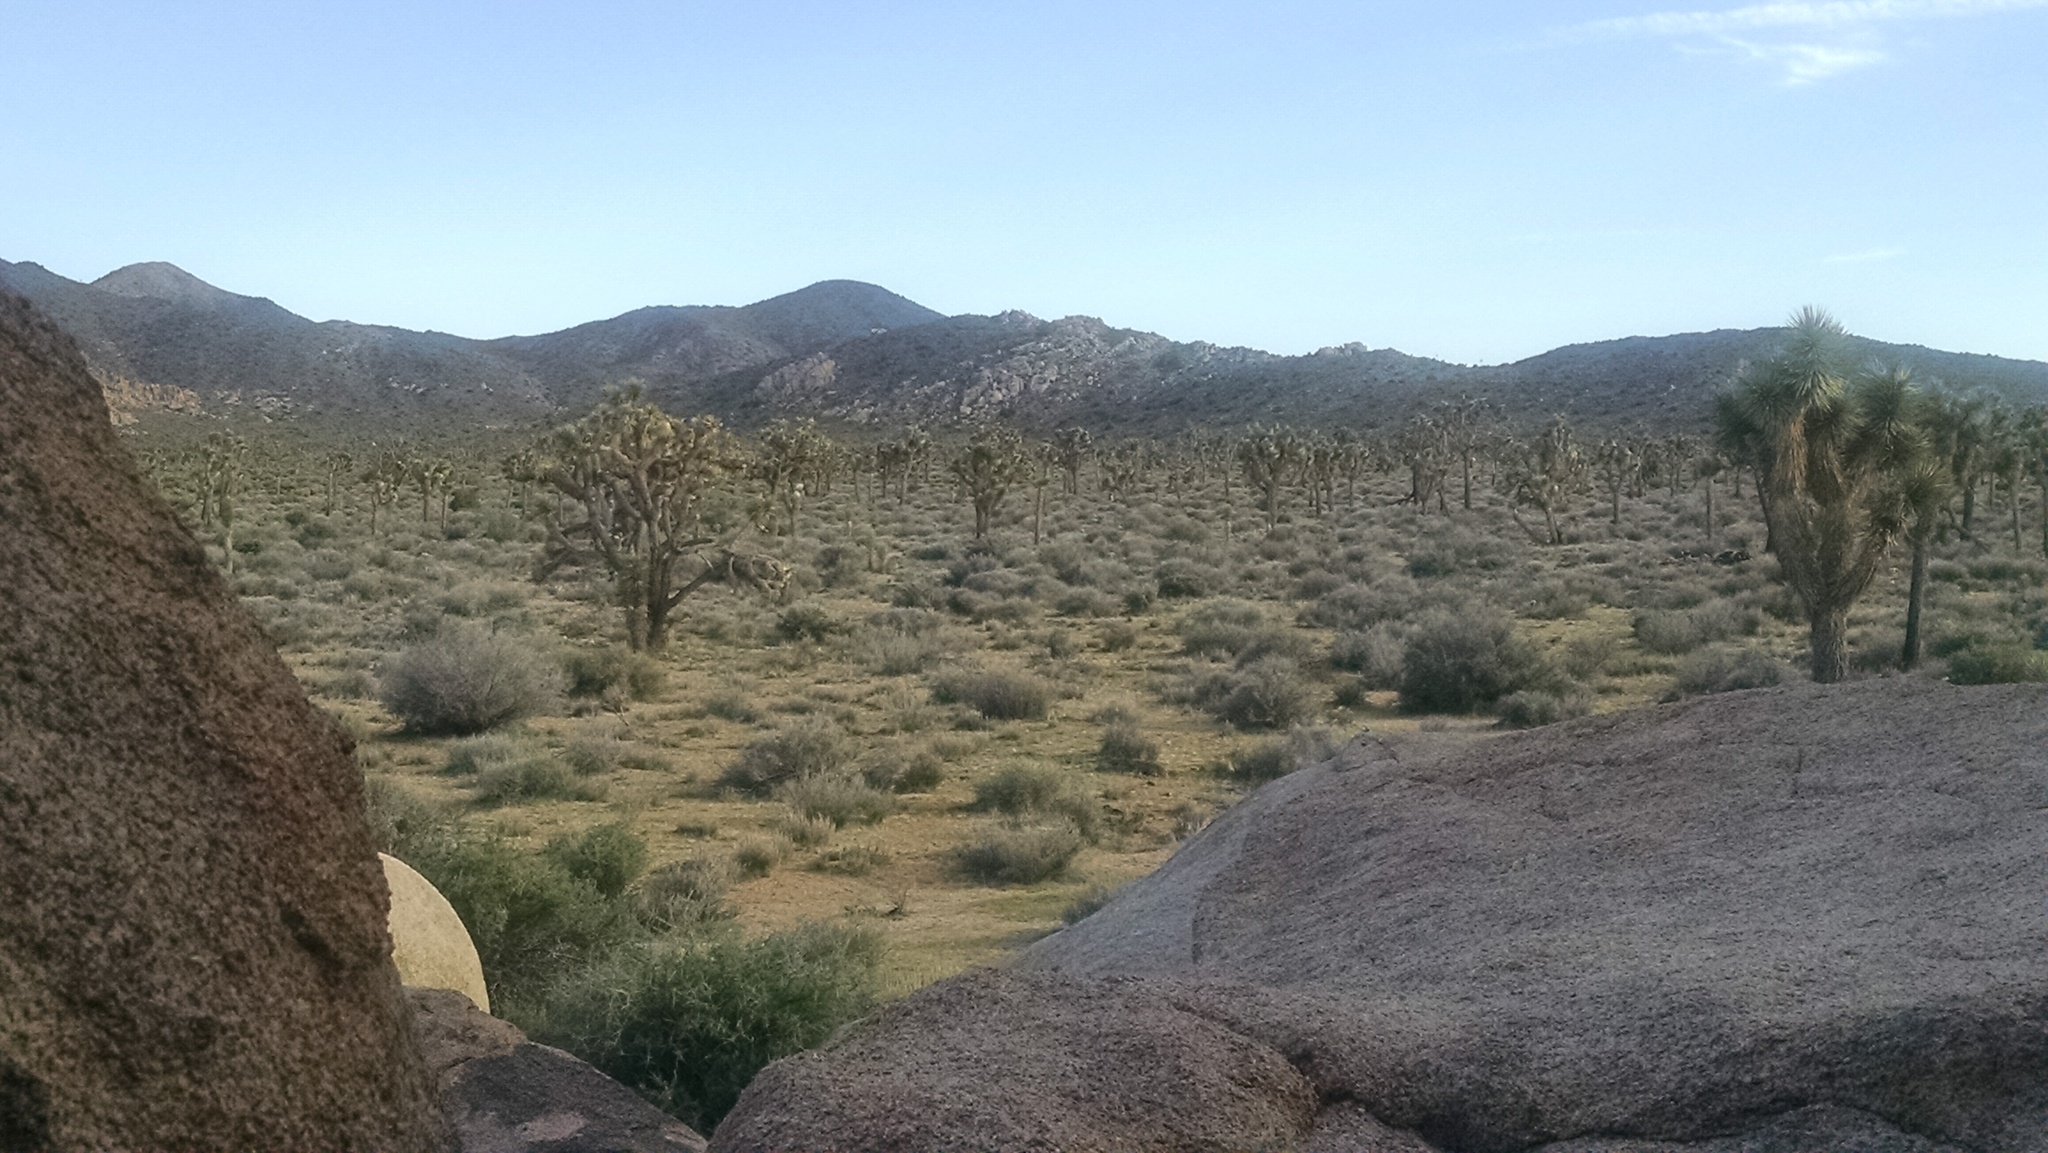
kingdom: Plantae
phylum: Tracheophyta
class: Liliopsida
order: Asparagales
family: Asparagaceae
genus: Yucca
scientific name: Yucca brevifolia
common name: Joshua tree
